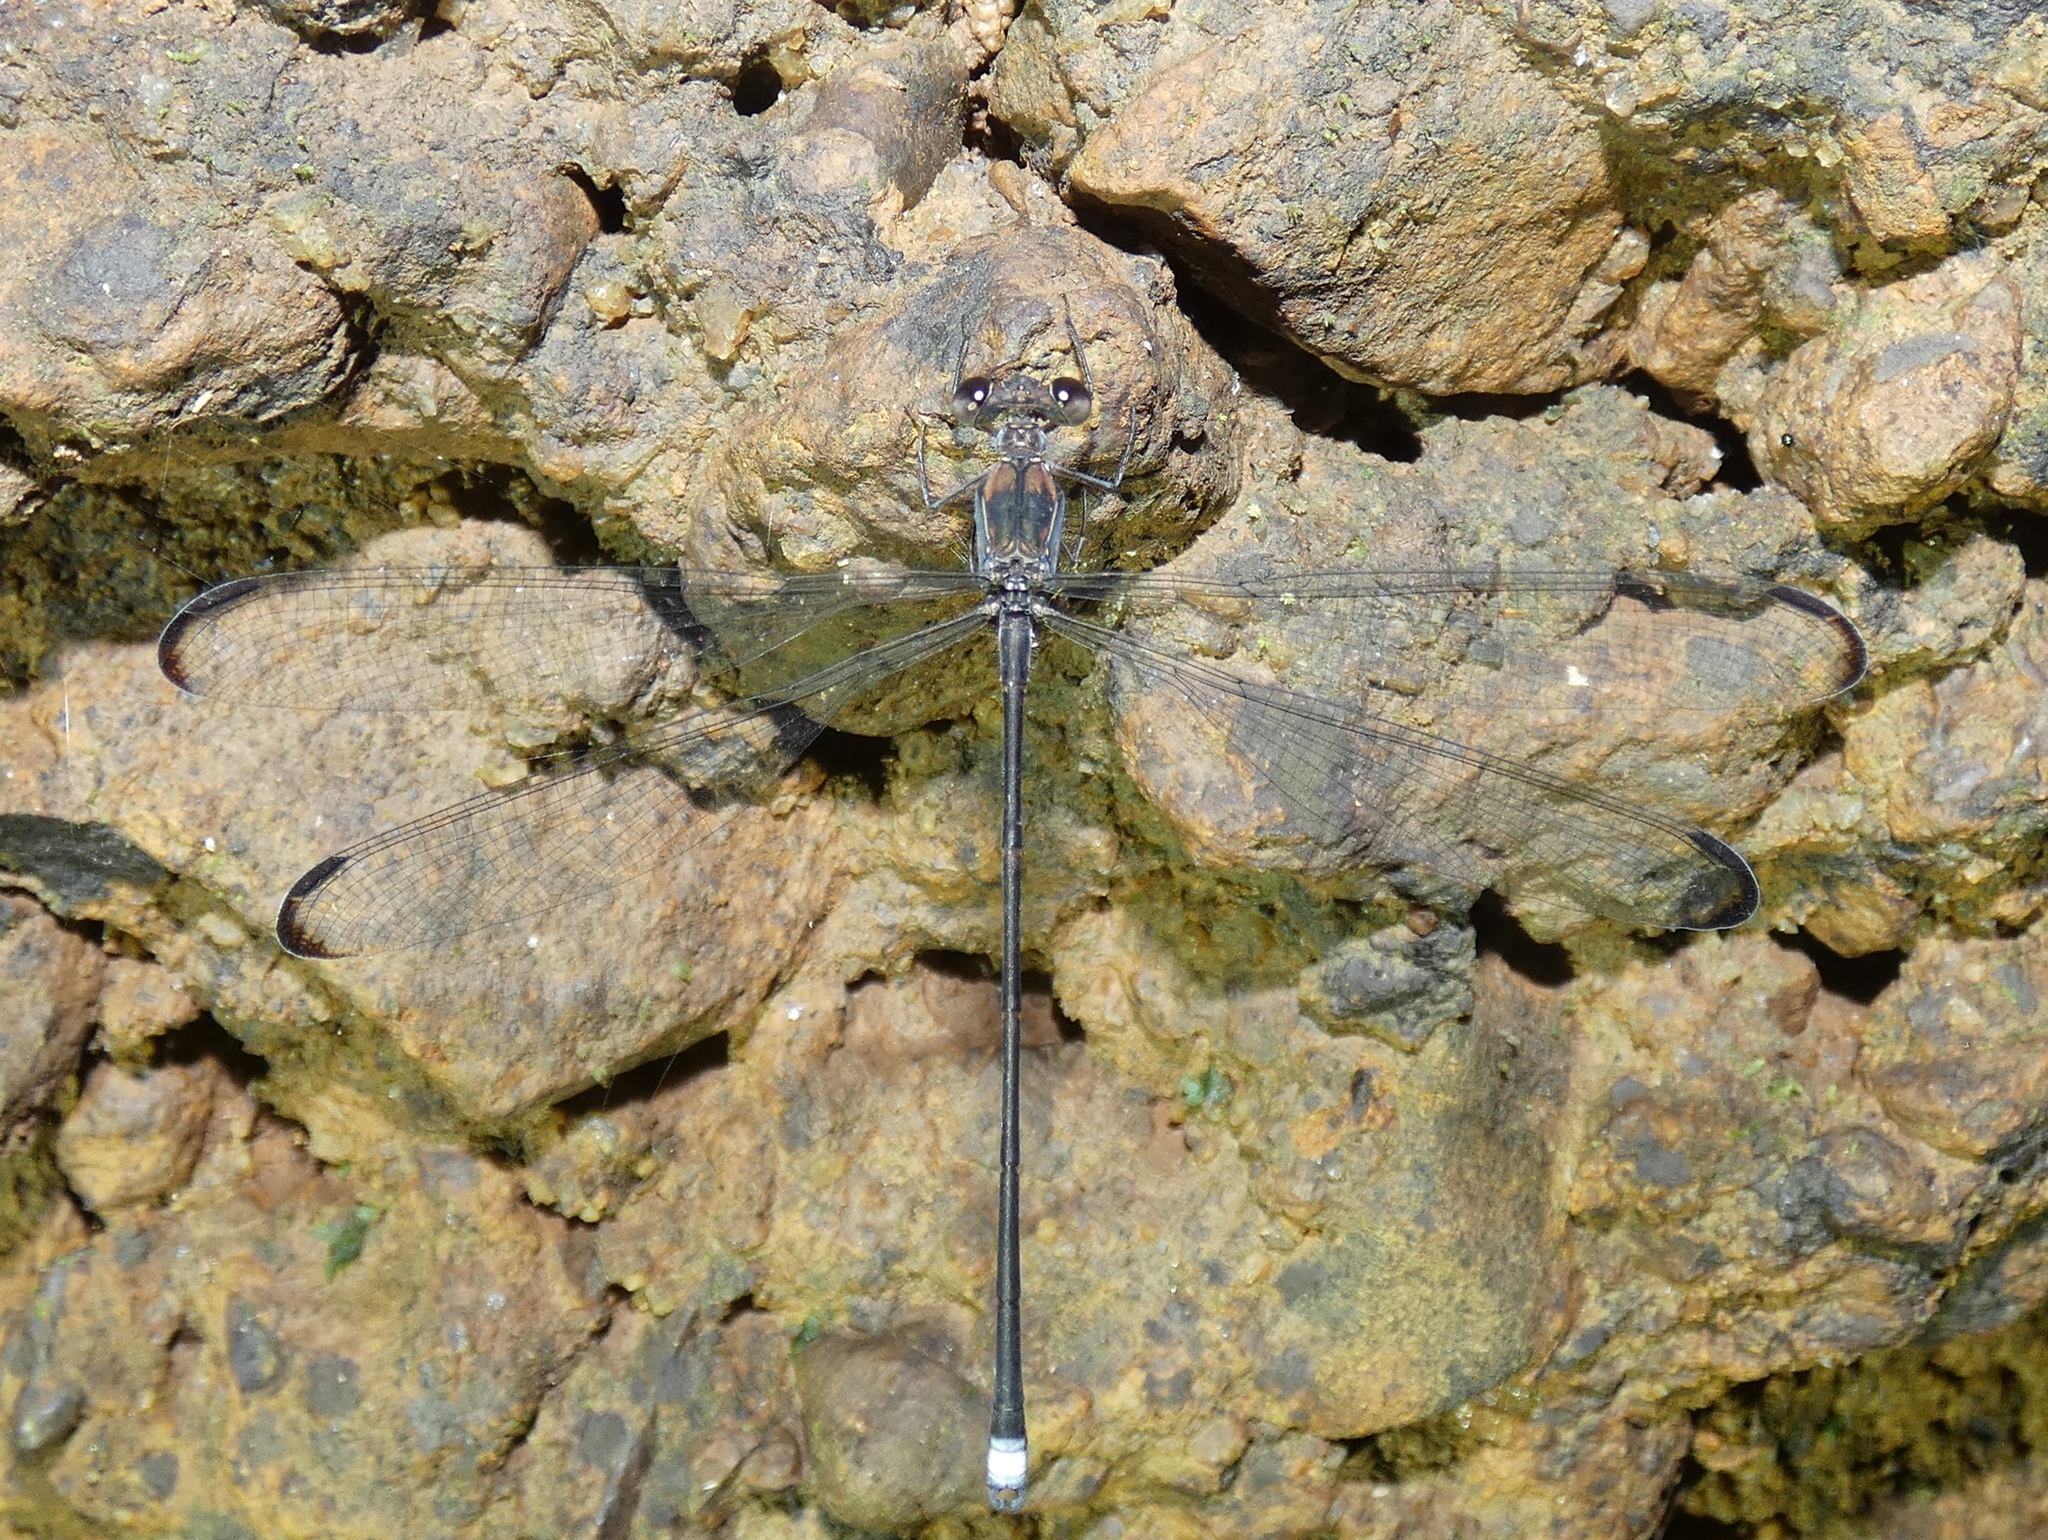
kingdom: Animalia
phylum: Arthropoda
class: Insecta
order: Odonata
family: Philogeniidae
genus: Philogenia
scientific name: Philogenia zeteki
